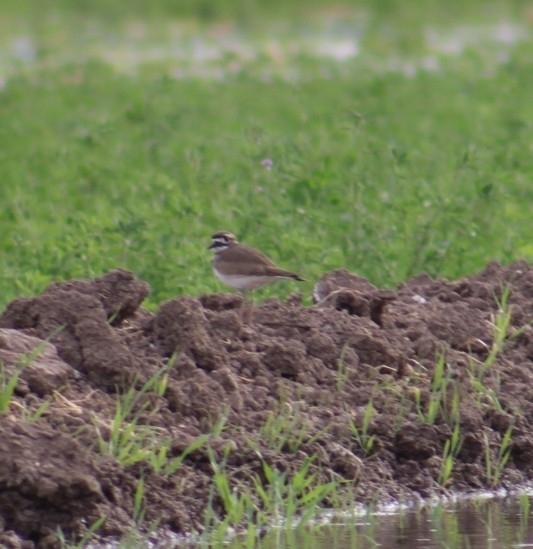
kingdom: Animalia
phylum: Chordata
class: Aves
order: Charadriiformes
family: Charadriidae
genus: Charadrius
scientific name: Charadrius vociferus
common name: Killdeer
